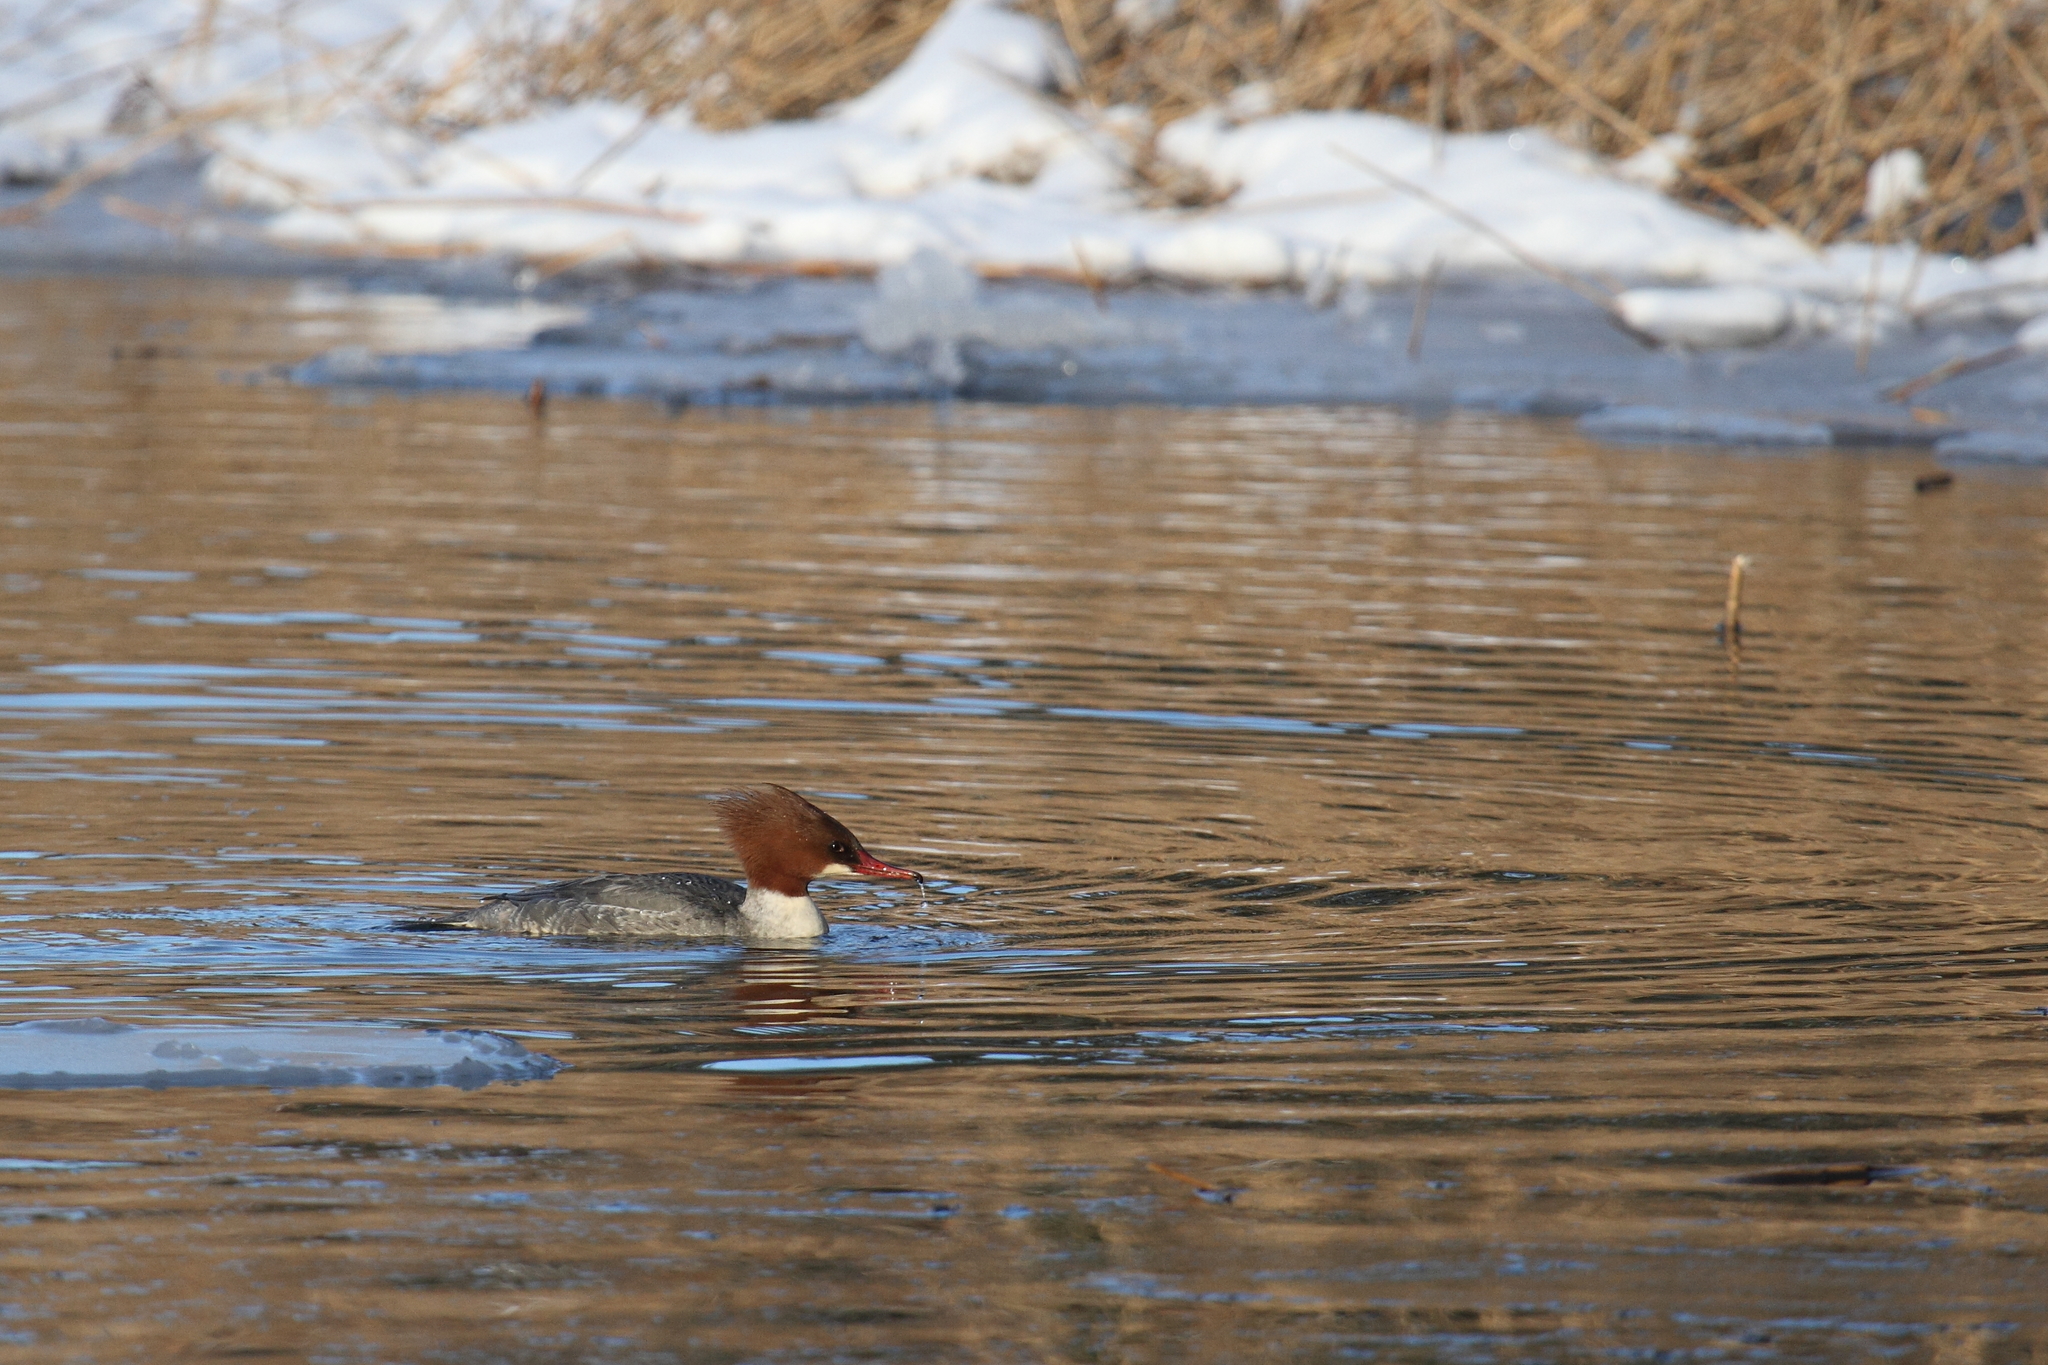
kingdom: Animalia
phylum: Chordata
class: Aves
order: Anseriformes
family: Anatidae
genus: Mergus
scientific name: Mergus merganser
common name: Common merganser
